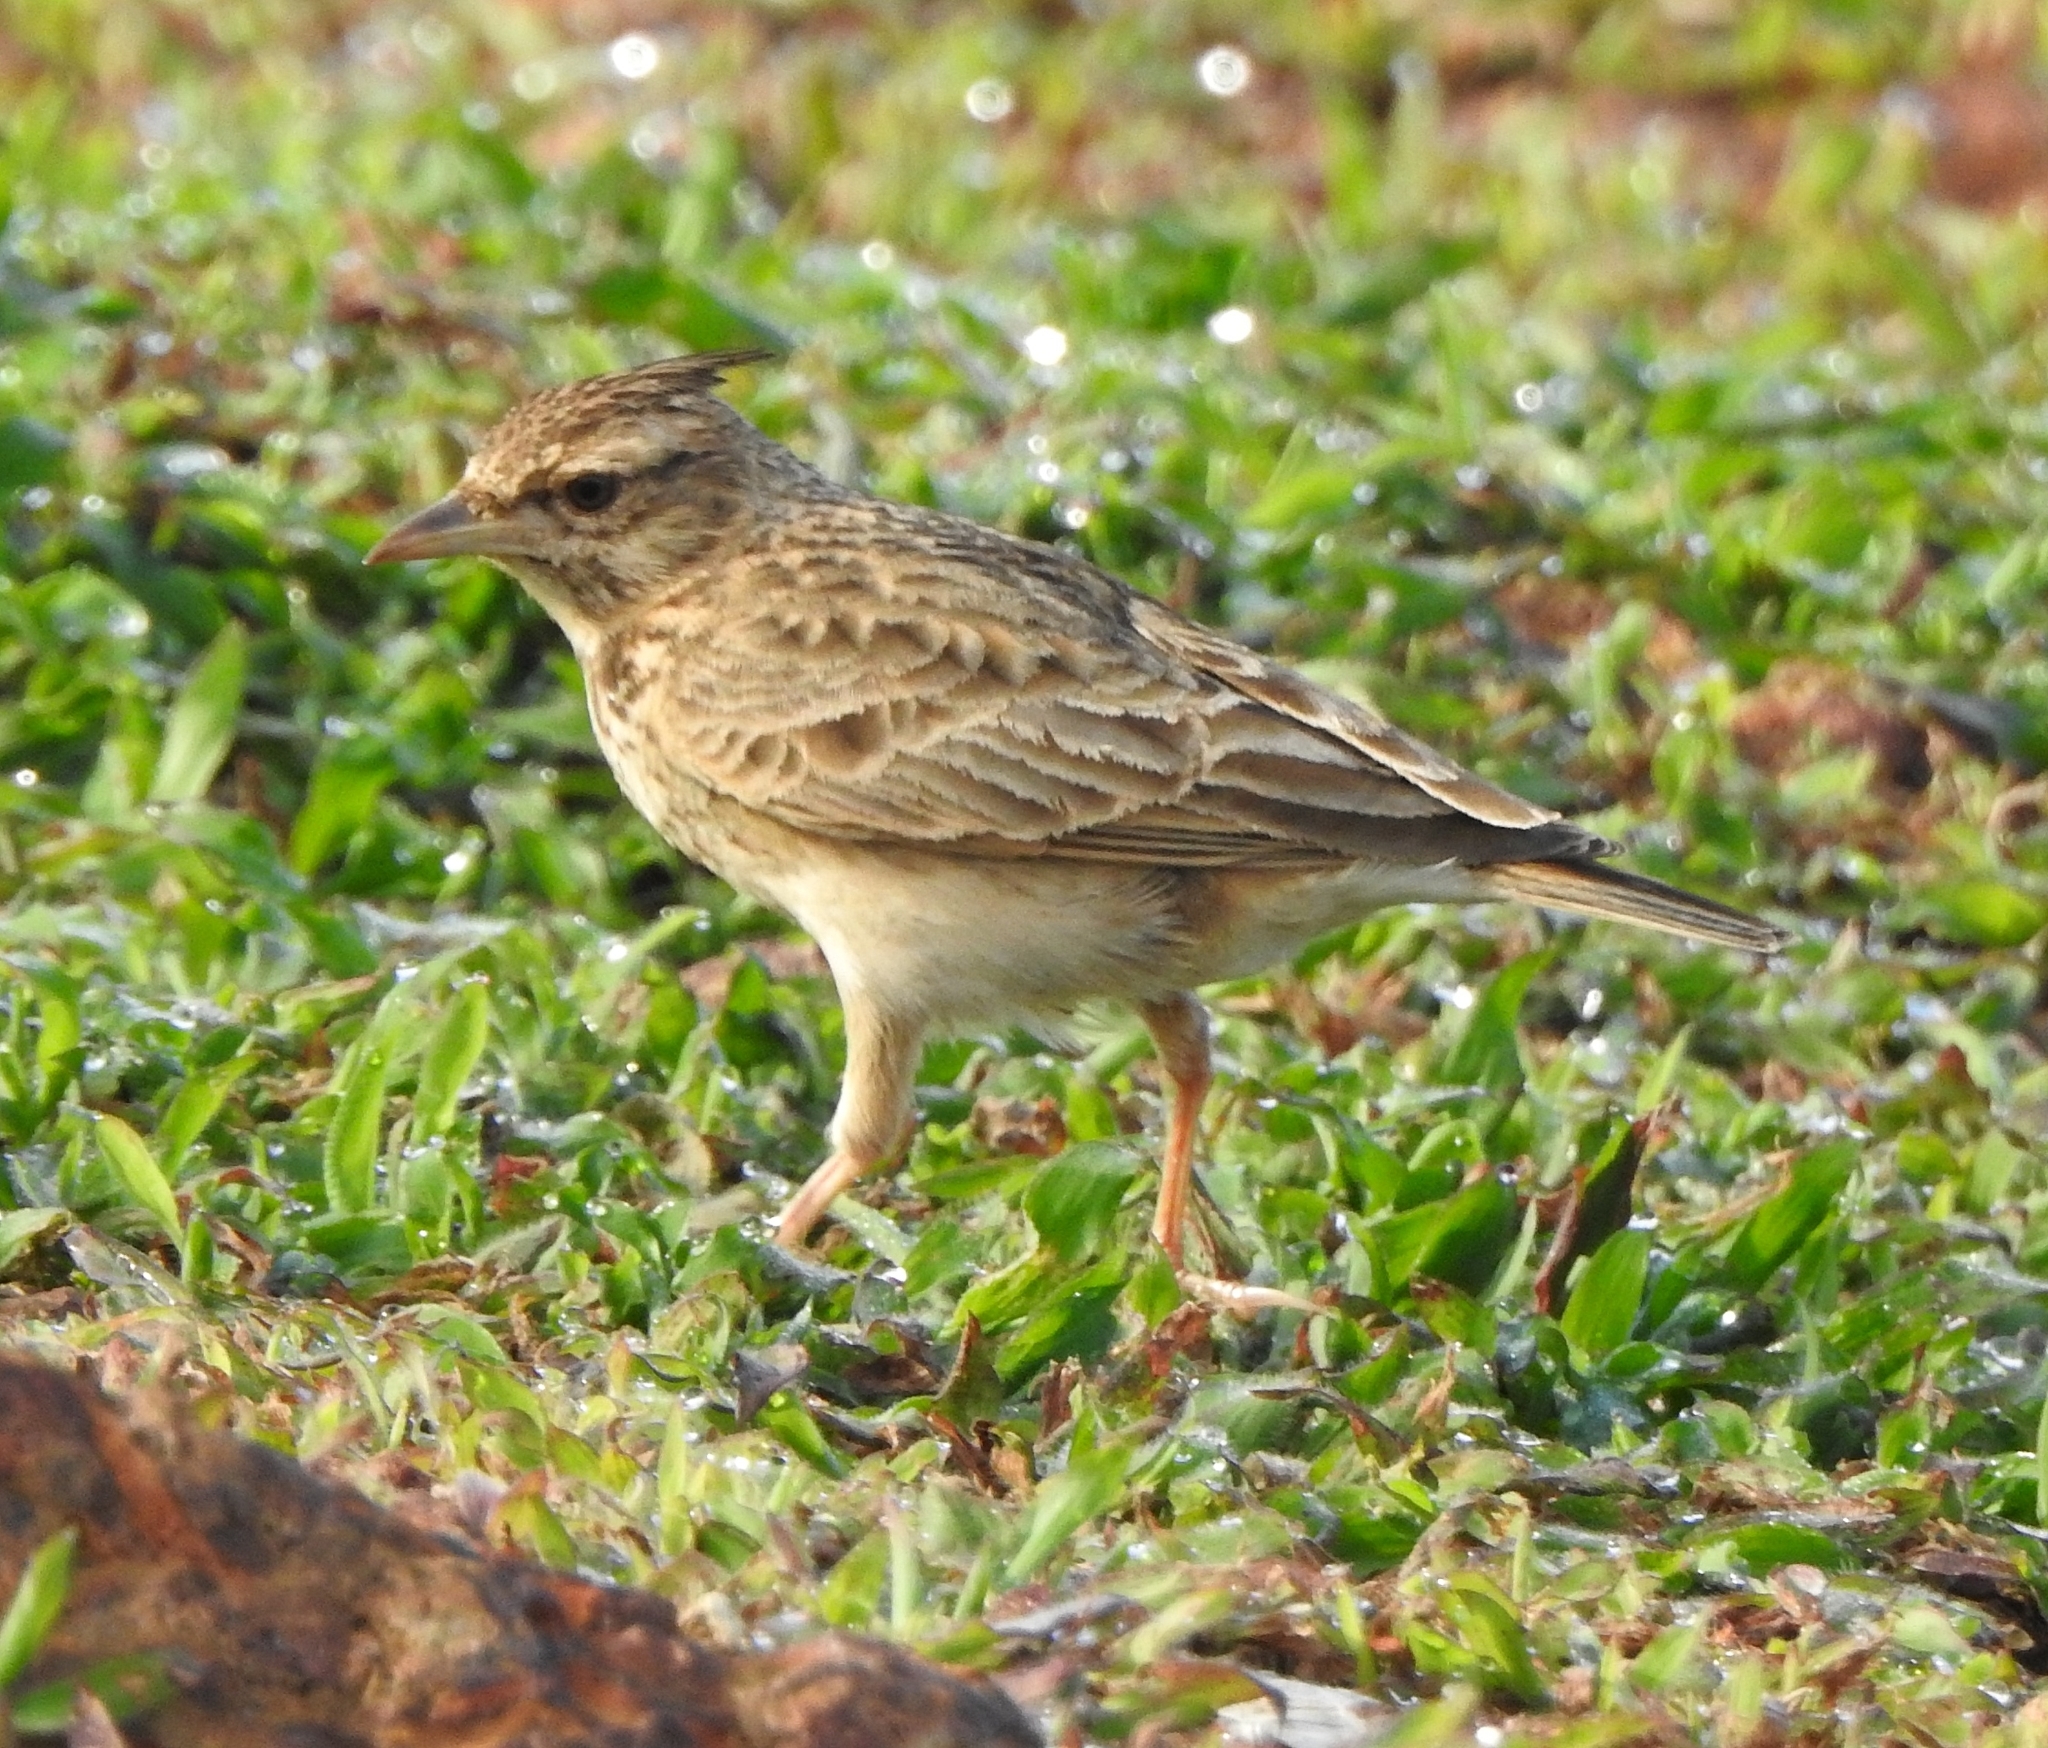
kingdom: Animalia
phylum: Chordata
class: Aves
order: Passeriformes
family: Alaudidae
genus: Galerida
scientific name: Galerida malabarica
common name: Malabar lark
